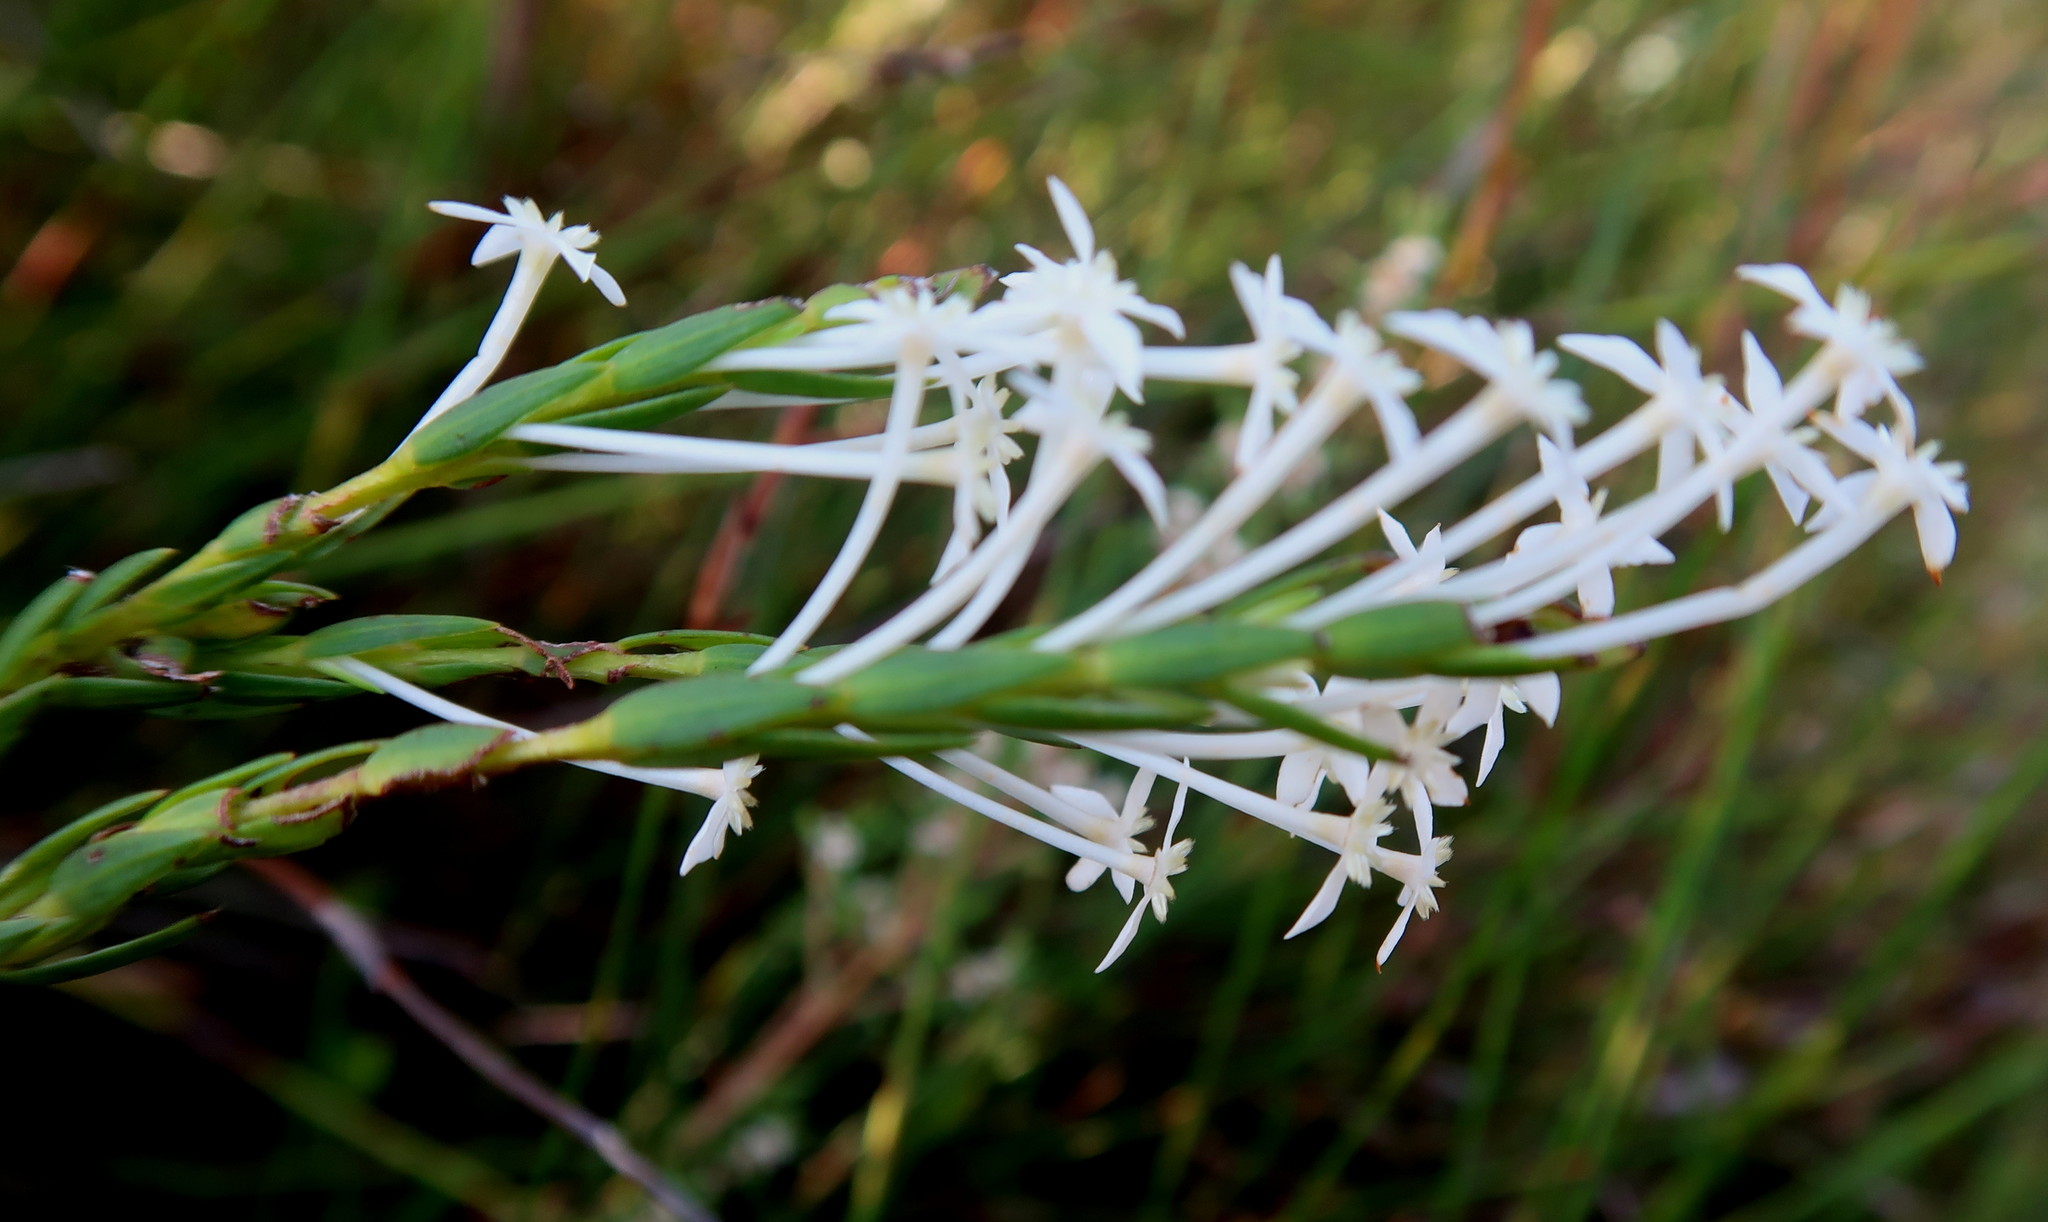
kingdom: Plantae
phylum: Tracheophyta
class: Magnoliopsida
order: Malvales
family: Thymelaeaceae
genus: Struthiola
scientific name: Struthiola myrsinites
